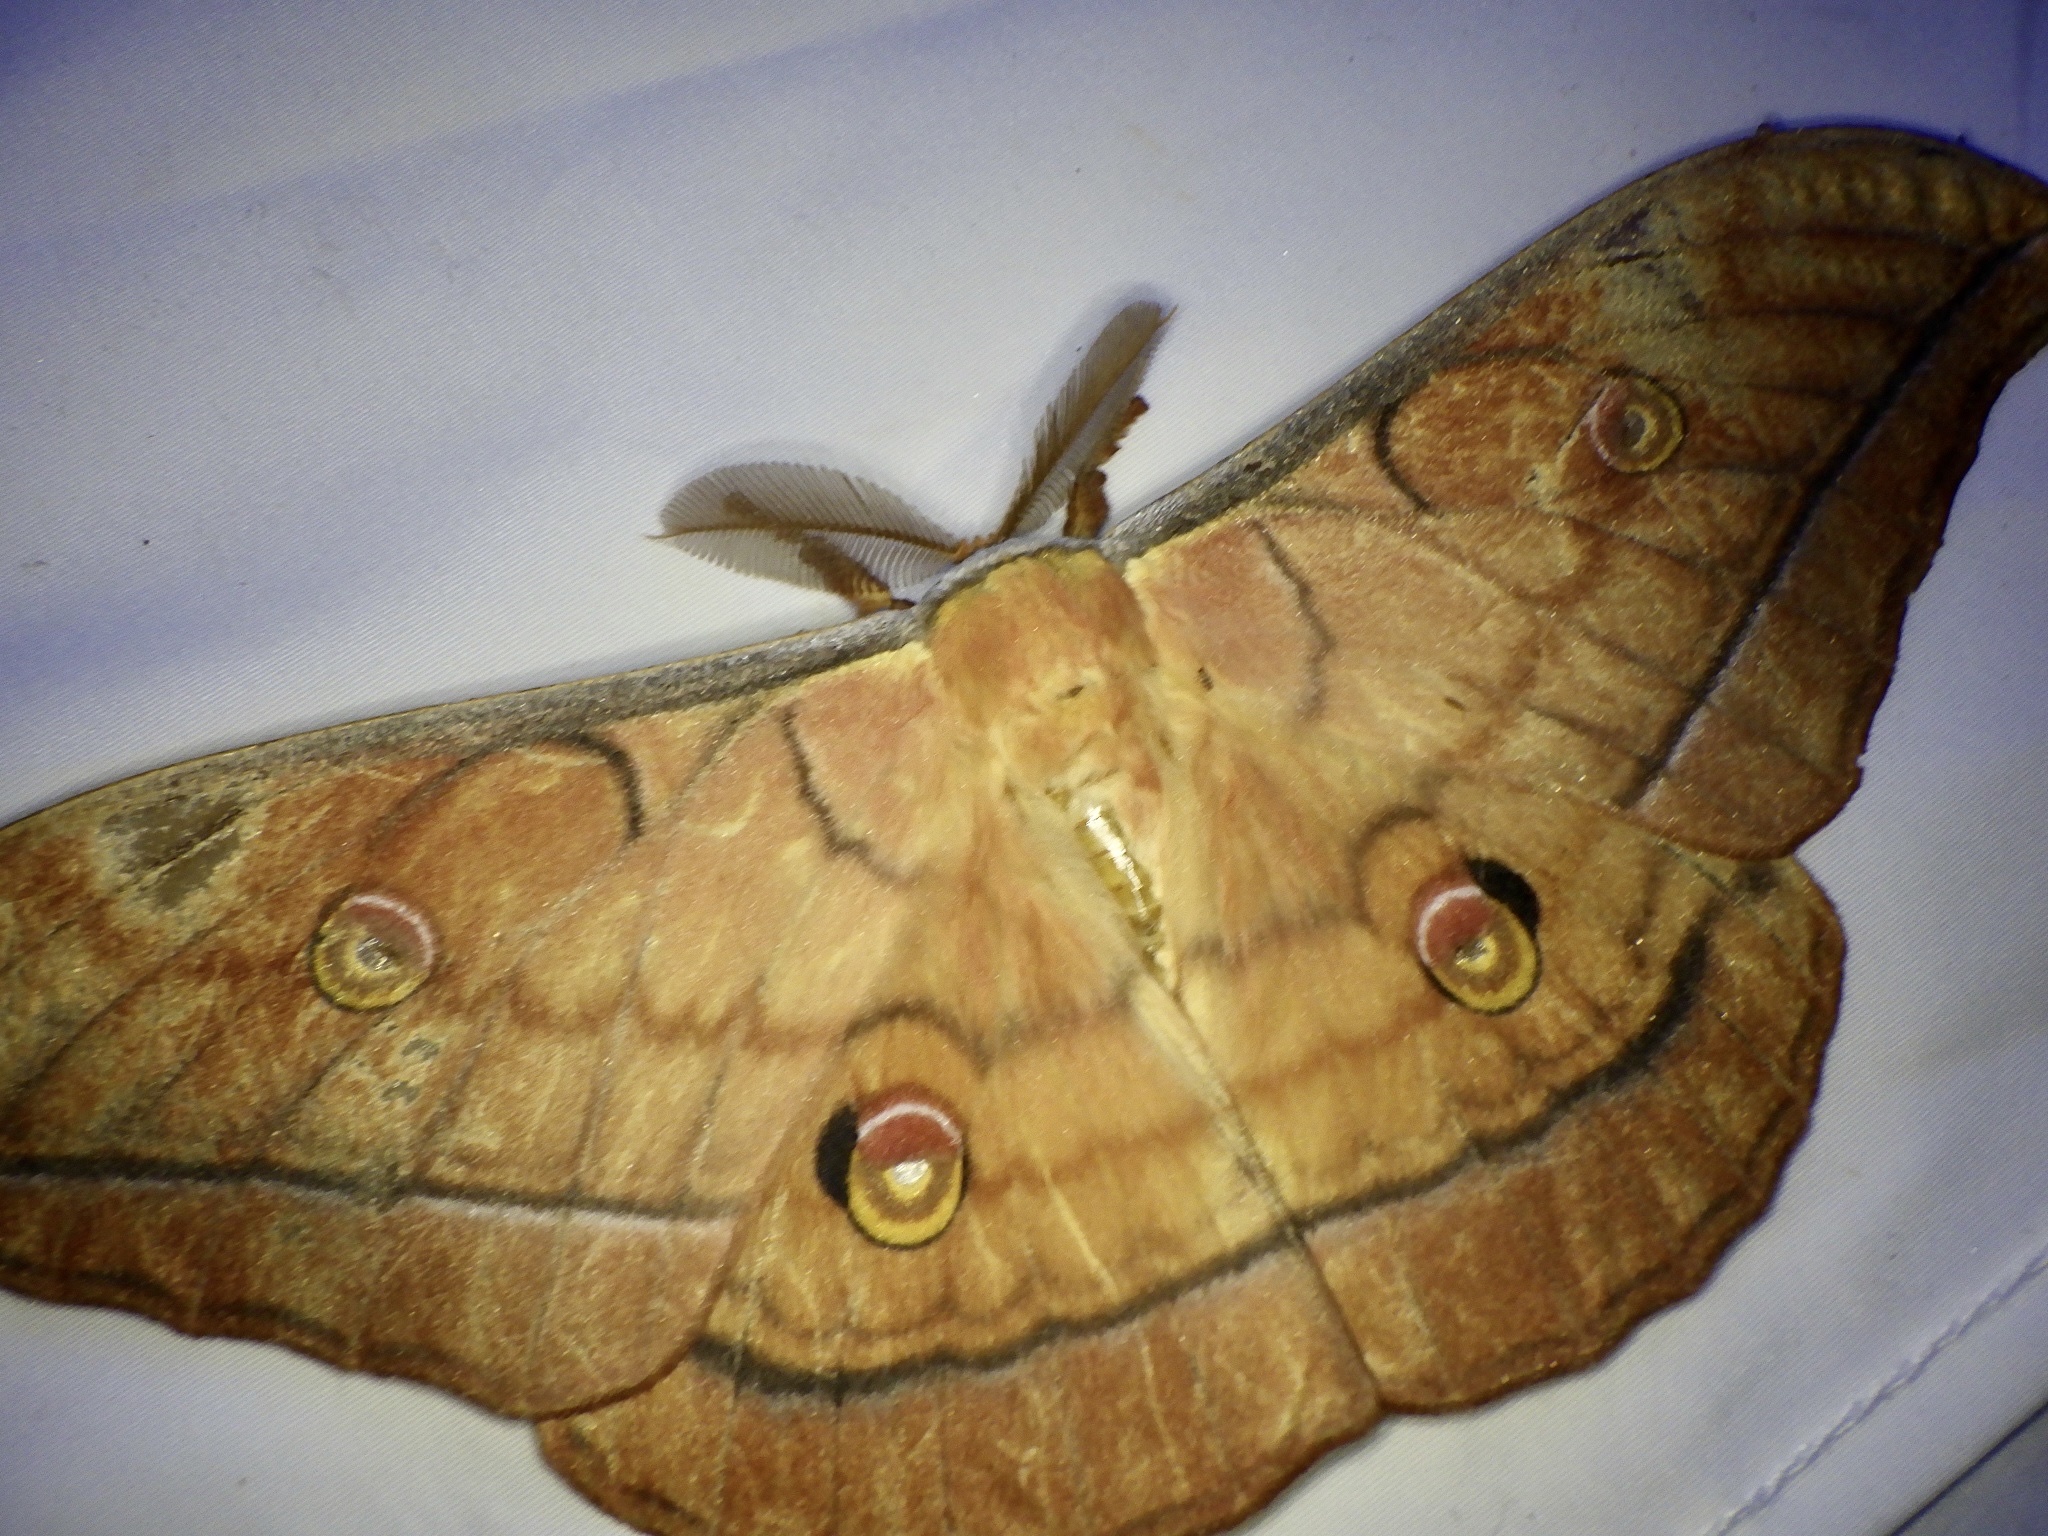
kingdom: Animalia
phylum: Arthropoda
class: Insecta
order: Lepidoptera
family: Saturniidae
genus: Antheraea
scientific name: Antheraea yamamai
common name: Japanese oak silk moth
